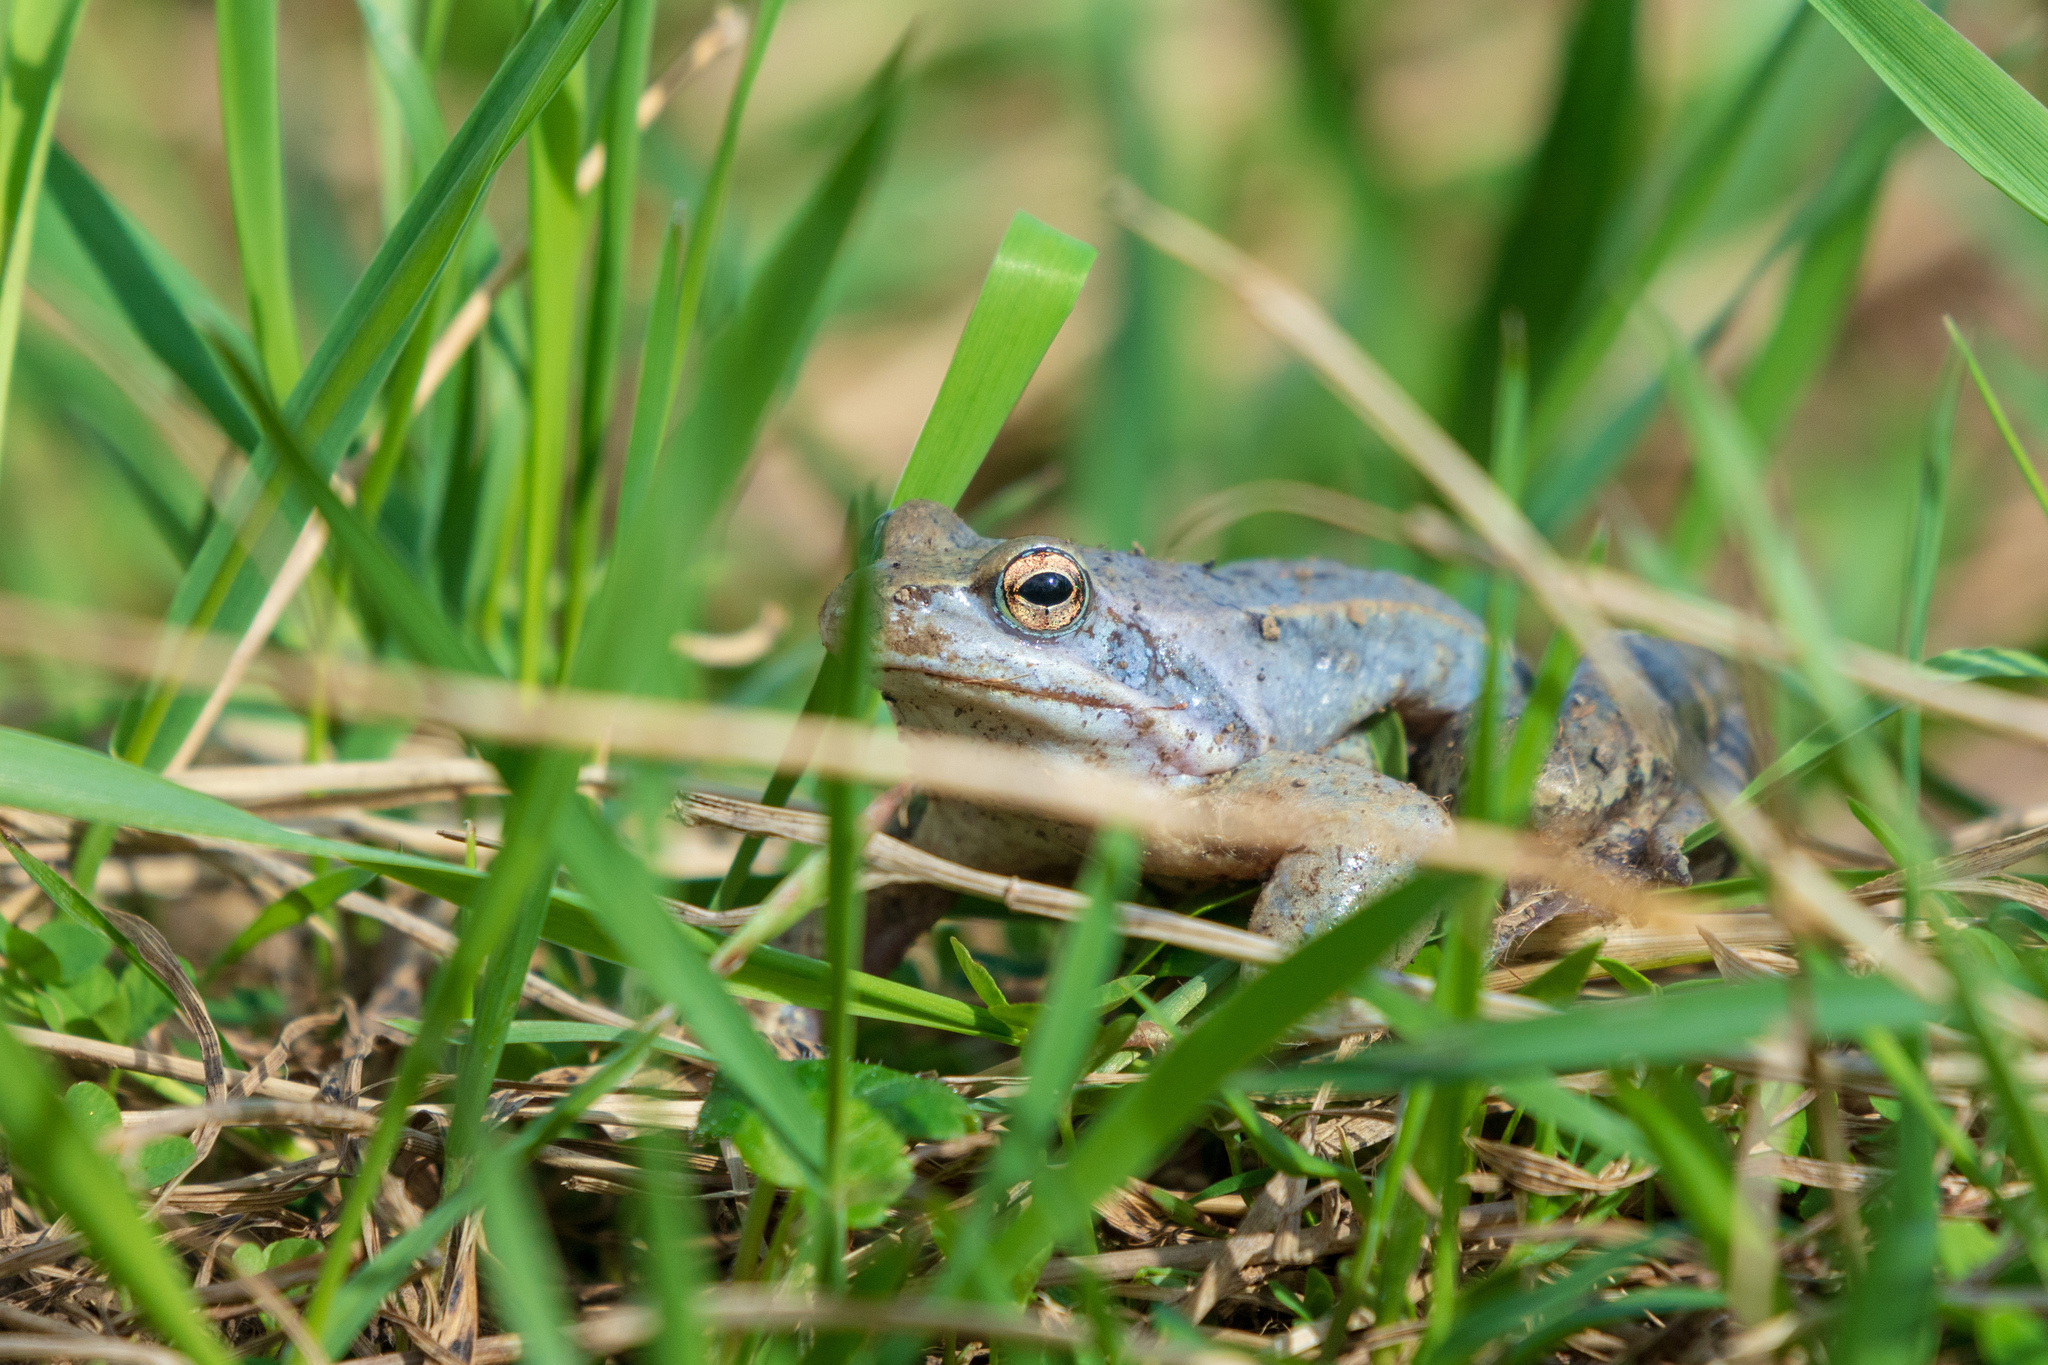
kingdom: Animalia
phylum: Chordata
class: Amphibia
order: Anura
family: Ranidae
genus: Rana
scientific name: Rana arvalis
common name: Moor frog
